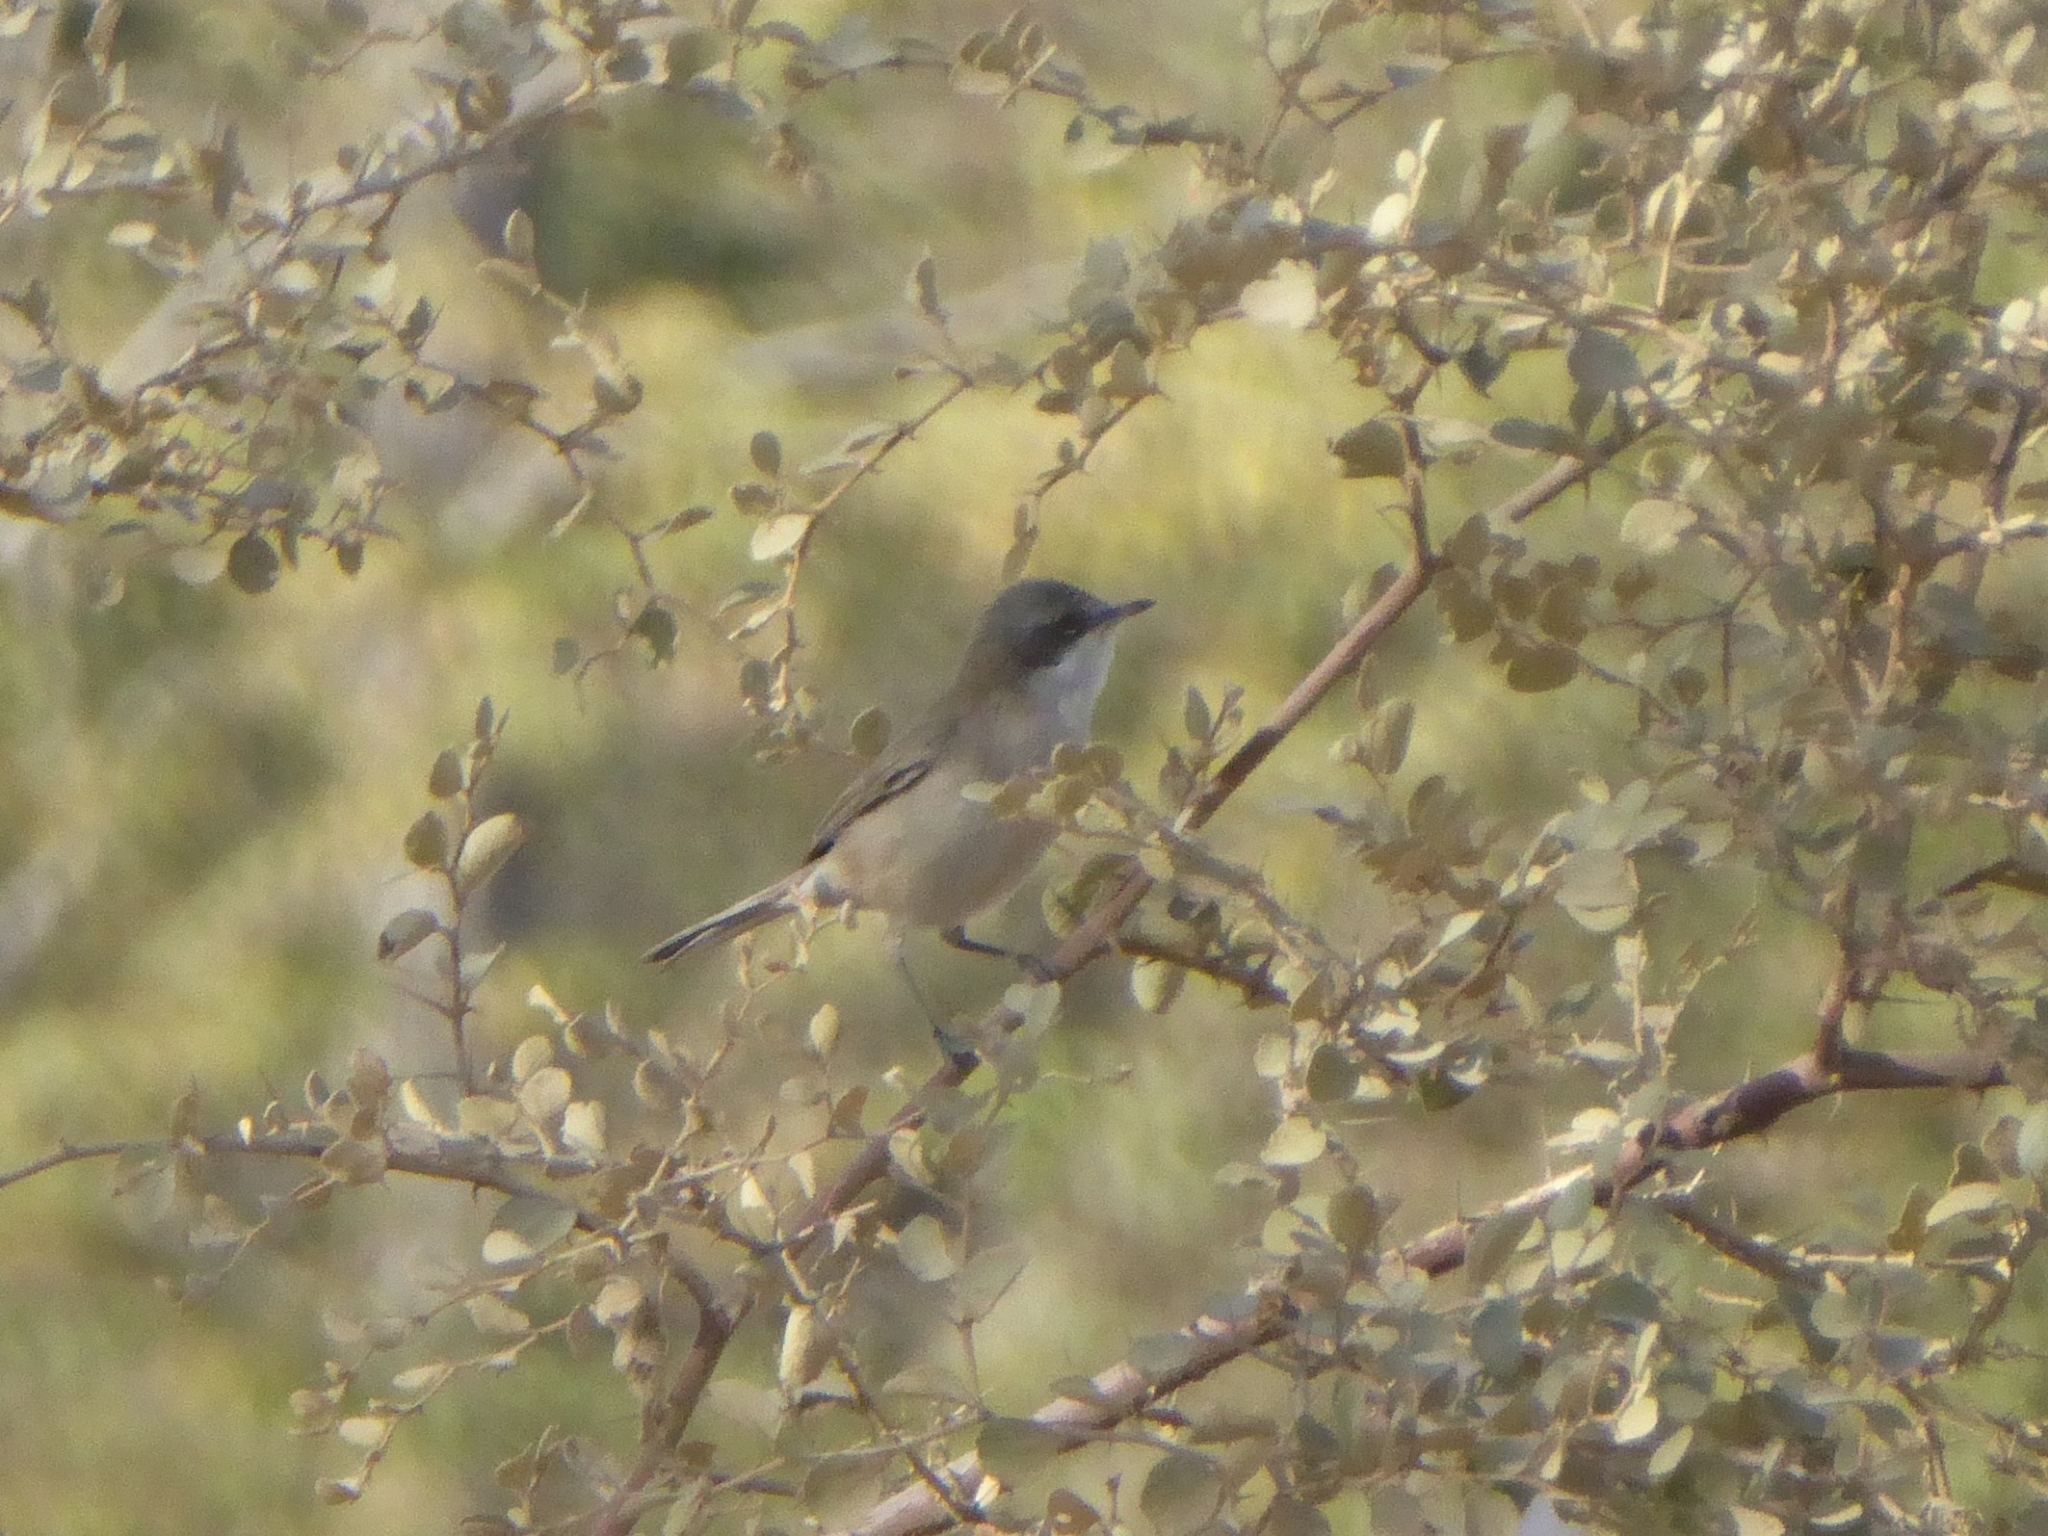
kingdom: Animalia
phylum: Chordata
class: Aves
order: Passeriformes
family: Sylviidae
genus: Sylvia
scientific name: Sylvia curruca
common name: Lesser whitethroat
